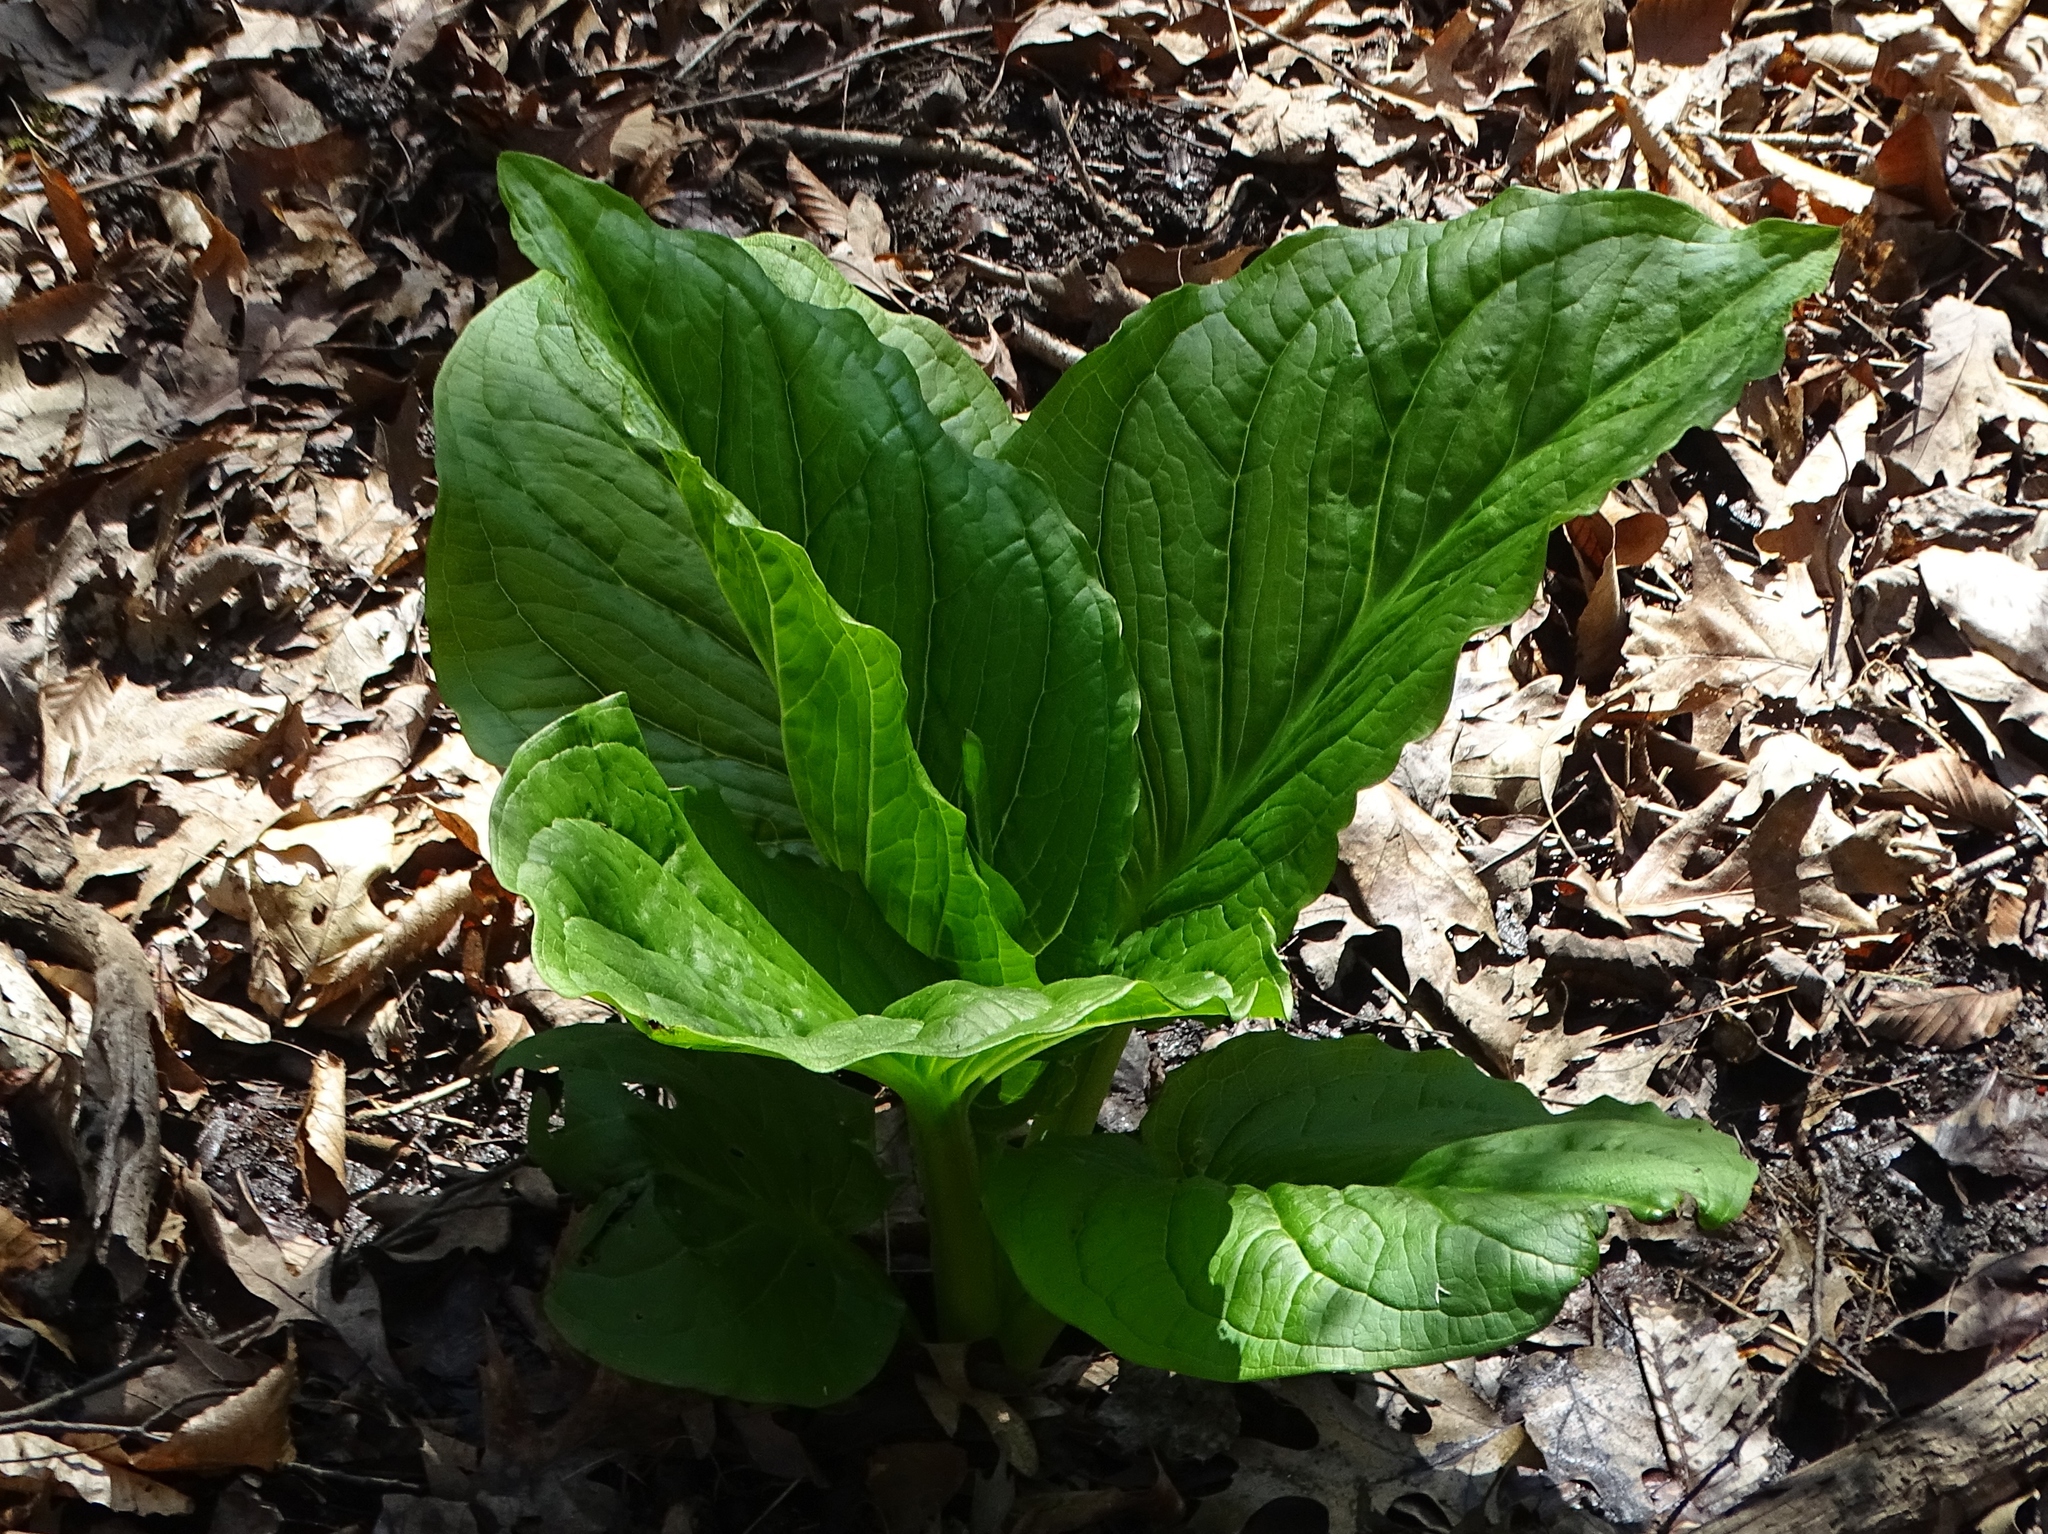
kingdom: Plantae
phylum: Tracheophyta
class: Liliopsida
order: Alismatales
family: Araceae
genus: Symplocarpus
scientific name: Symplocarpus foetidus
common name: Eastern skunk cabbage
